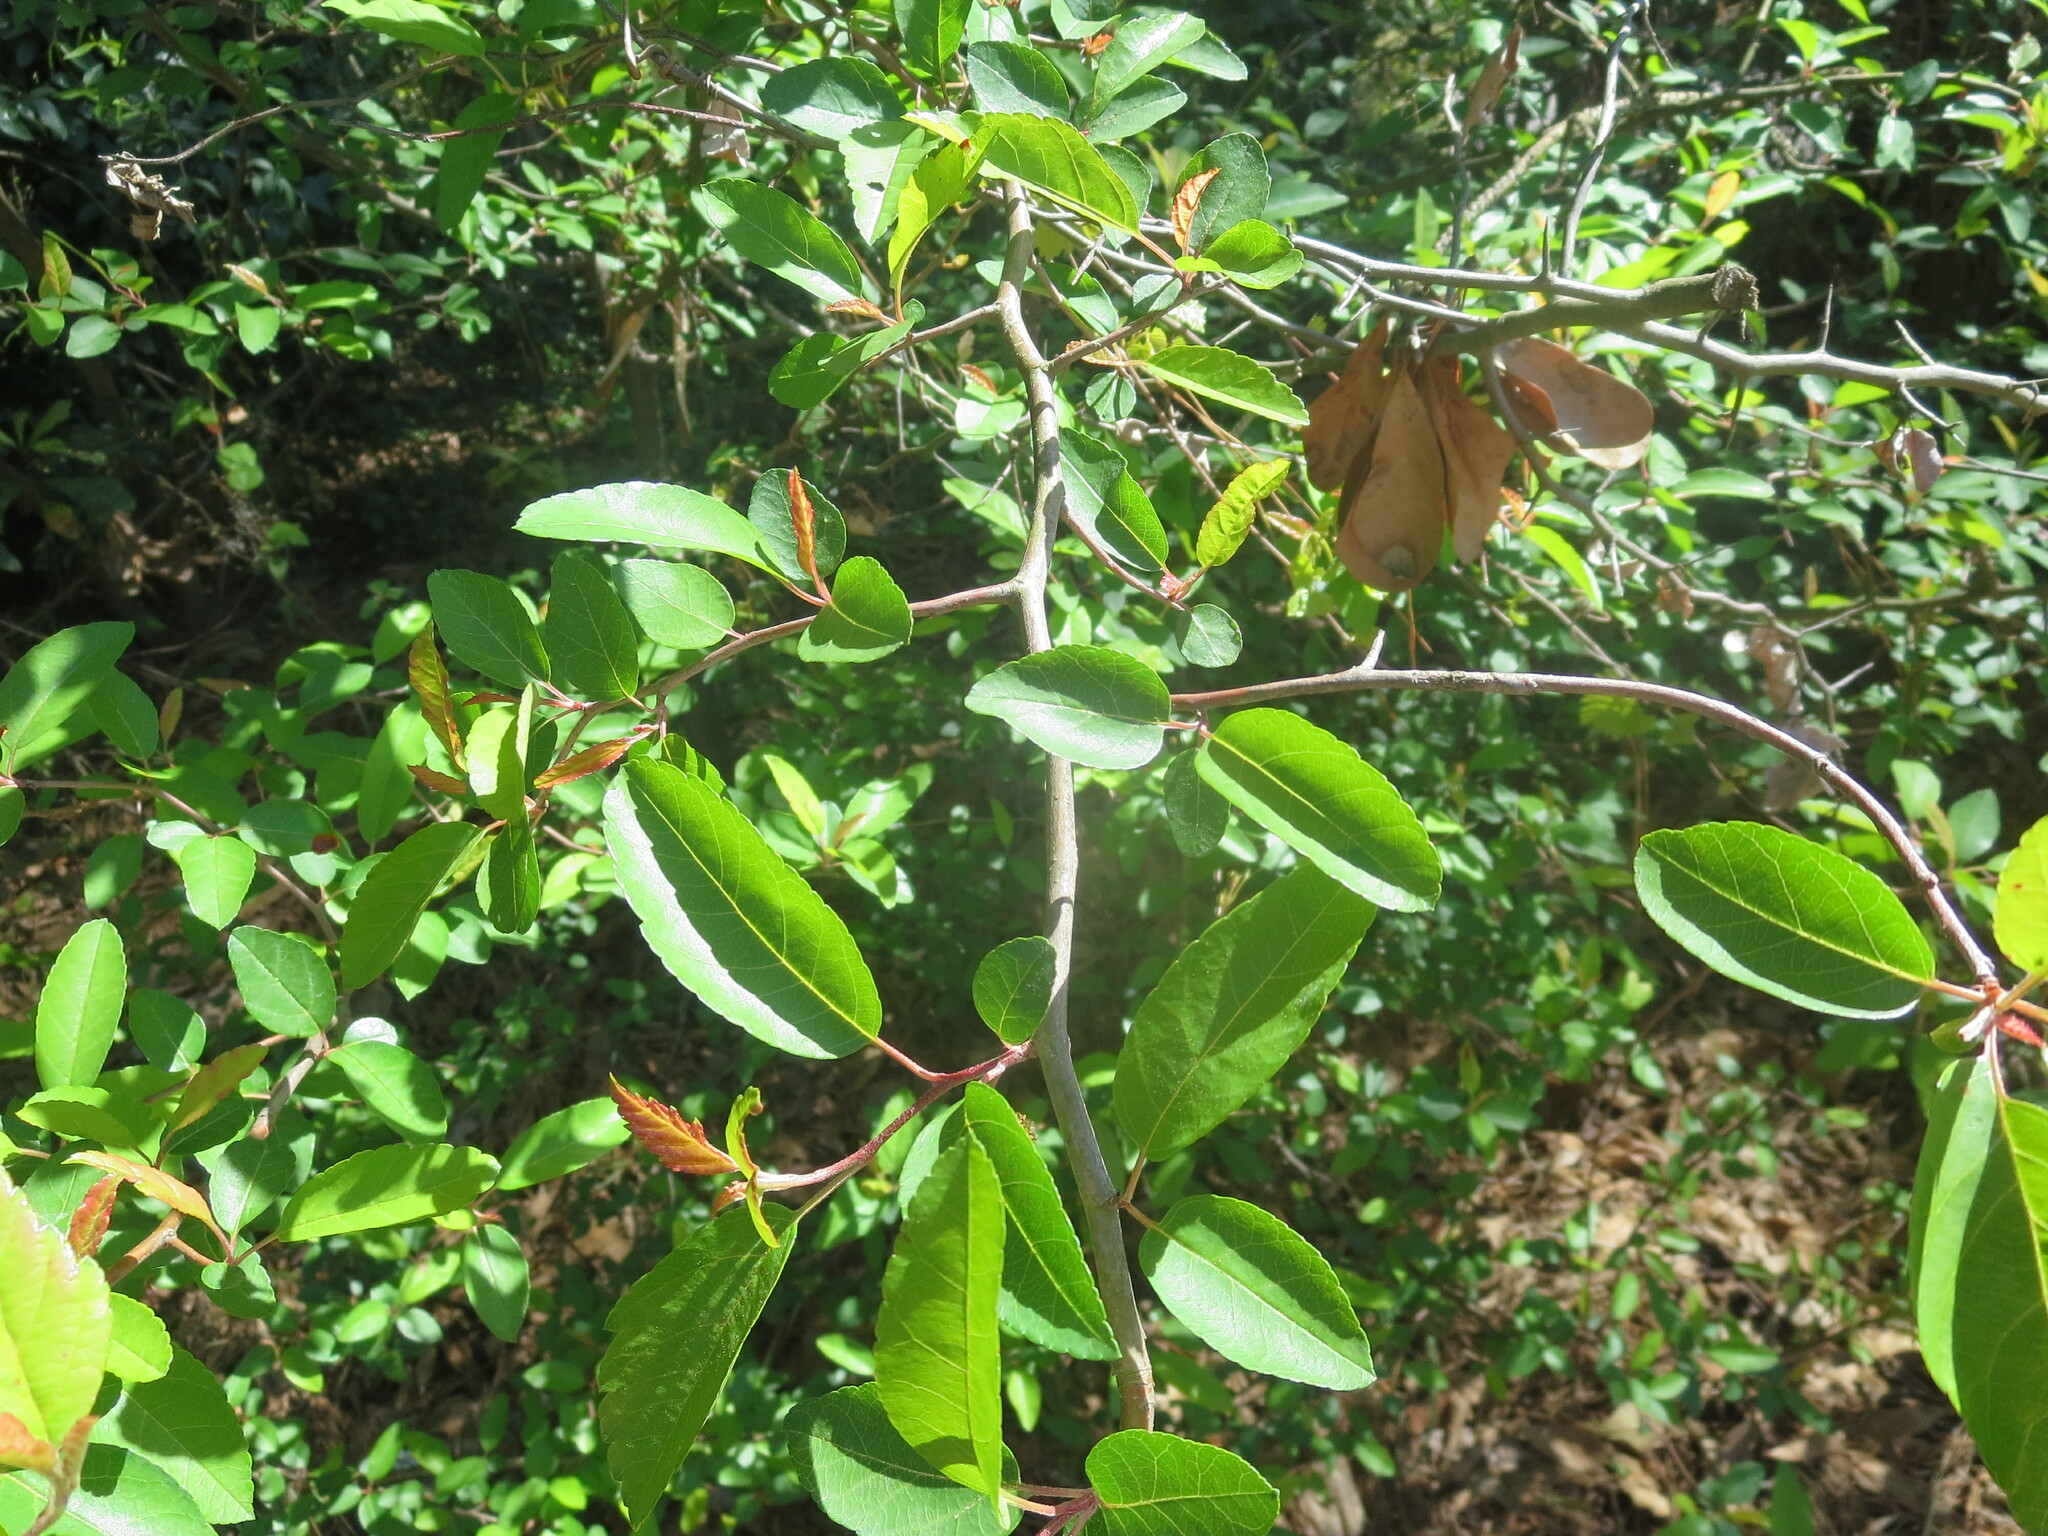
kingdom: Plantae
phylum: Tracheophyta
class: Magnoliopsida
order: Rosales
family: Rosaceae
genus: Malus
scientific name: Malus angustifolia
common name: Southern crab apple
